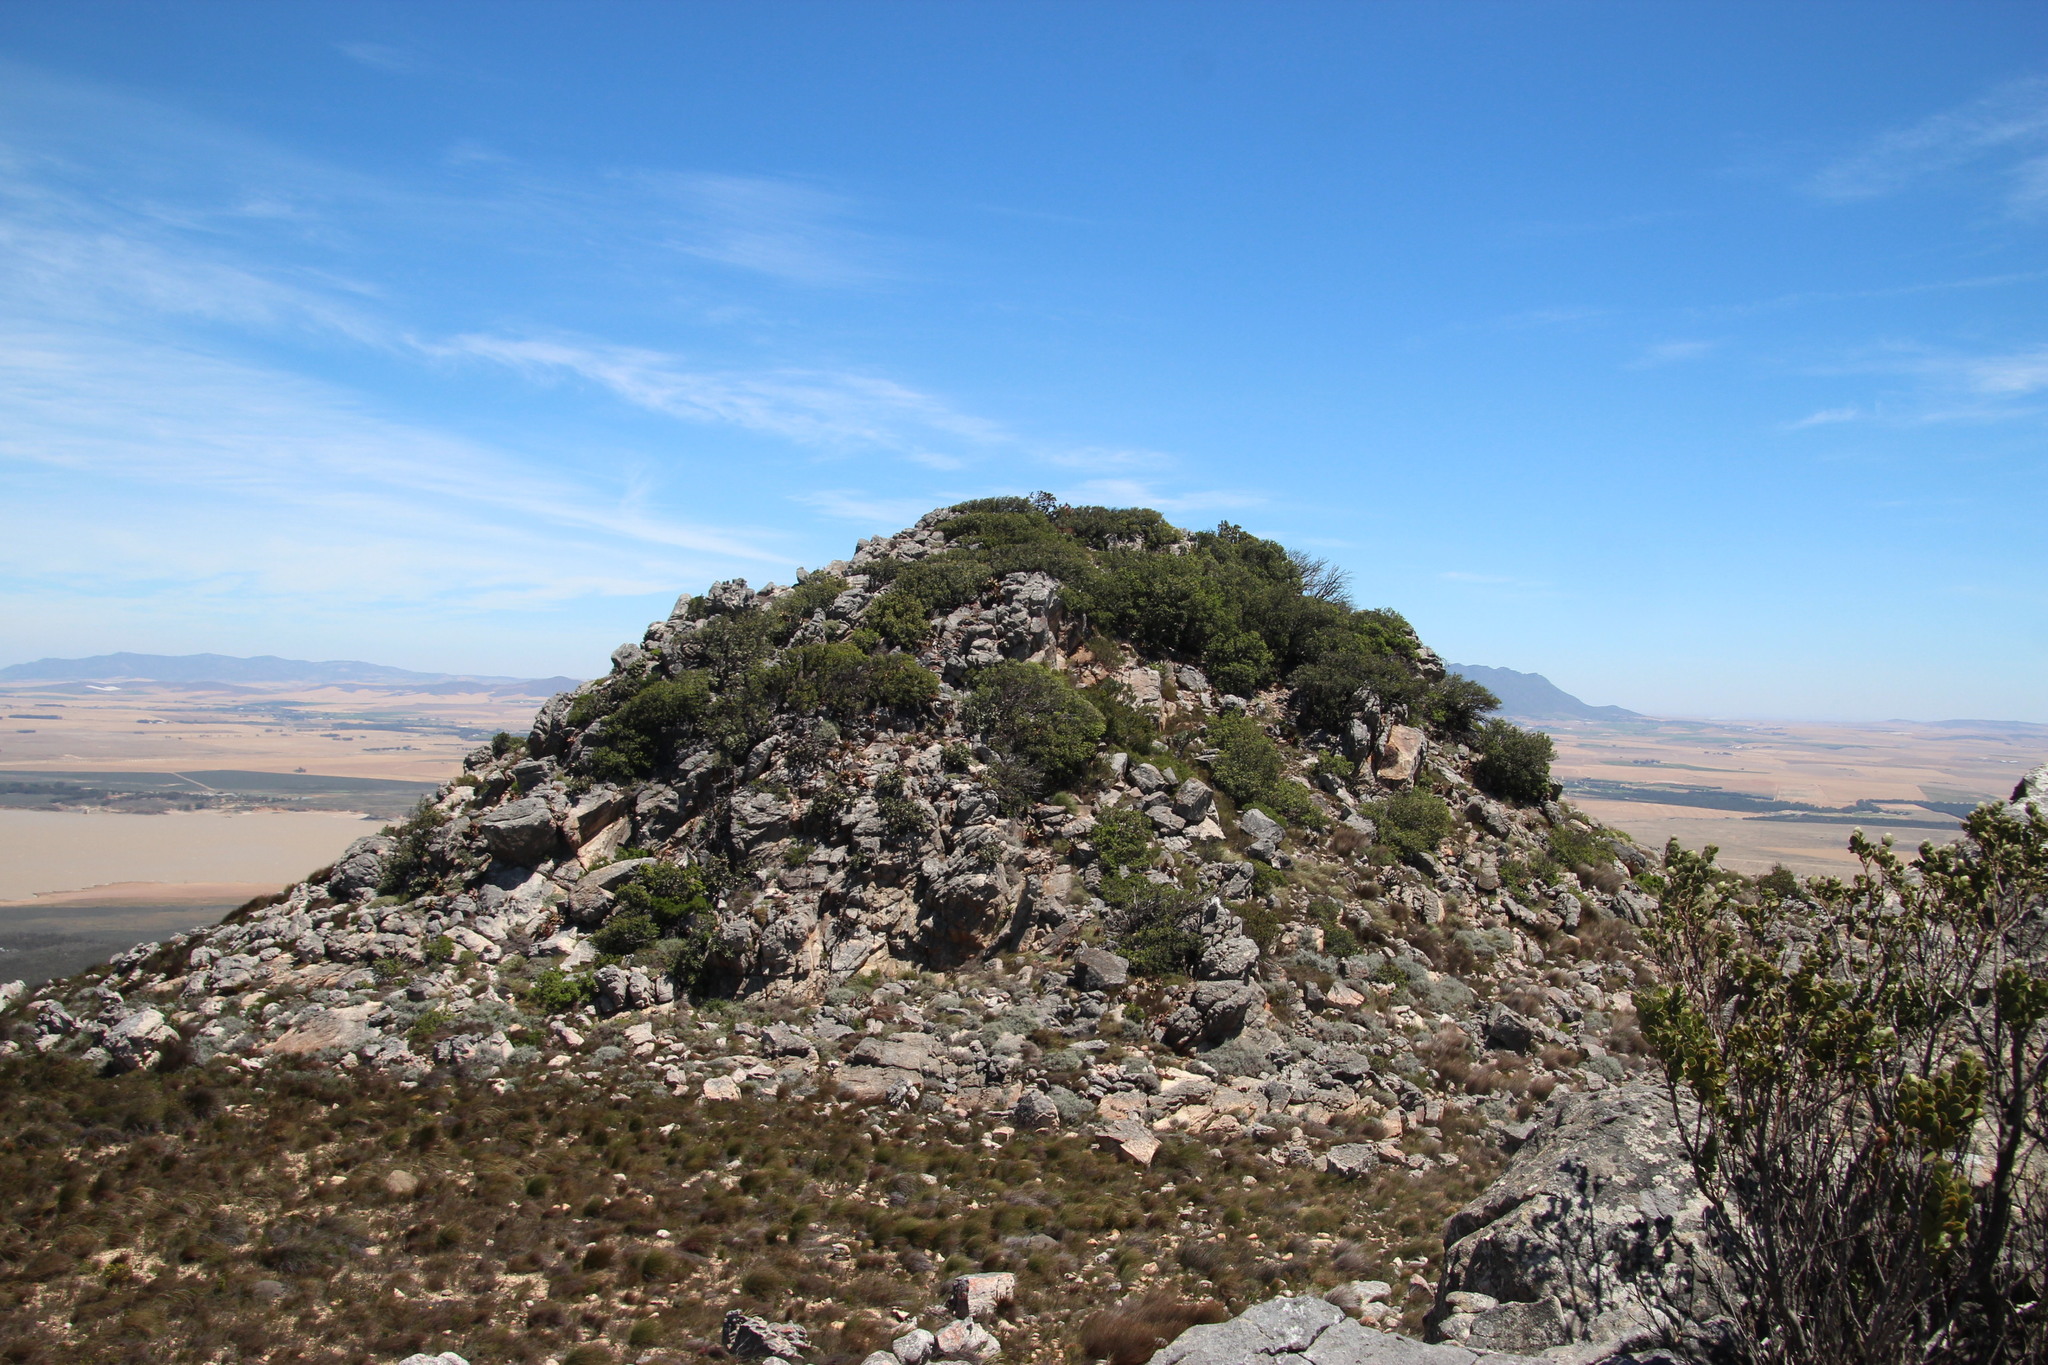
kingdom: Plantae
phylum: Tracheophyta
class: Magnoliopsida
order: Asterales
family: Asteraceae
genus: Oldenburgia
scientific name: Oldenburgia papionum
